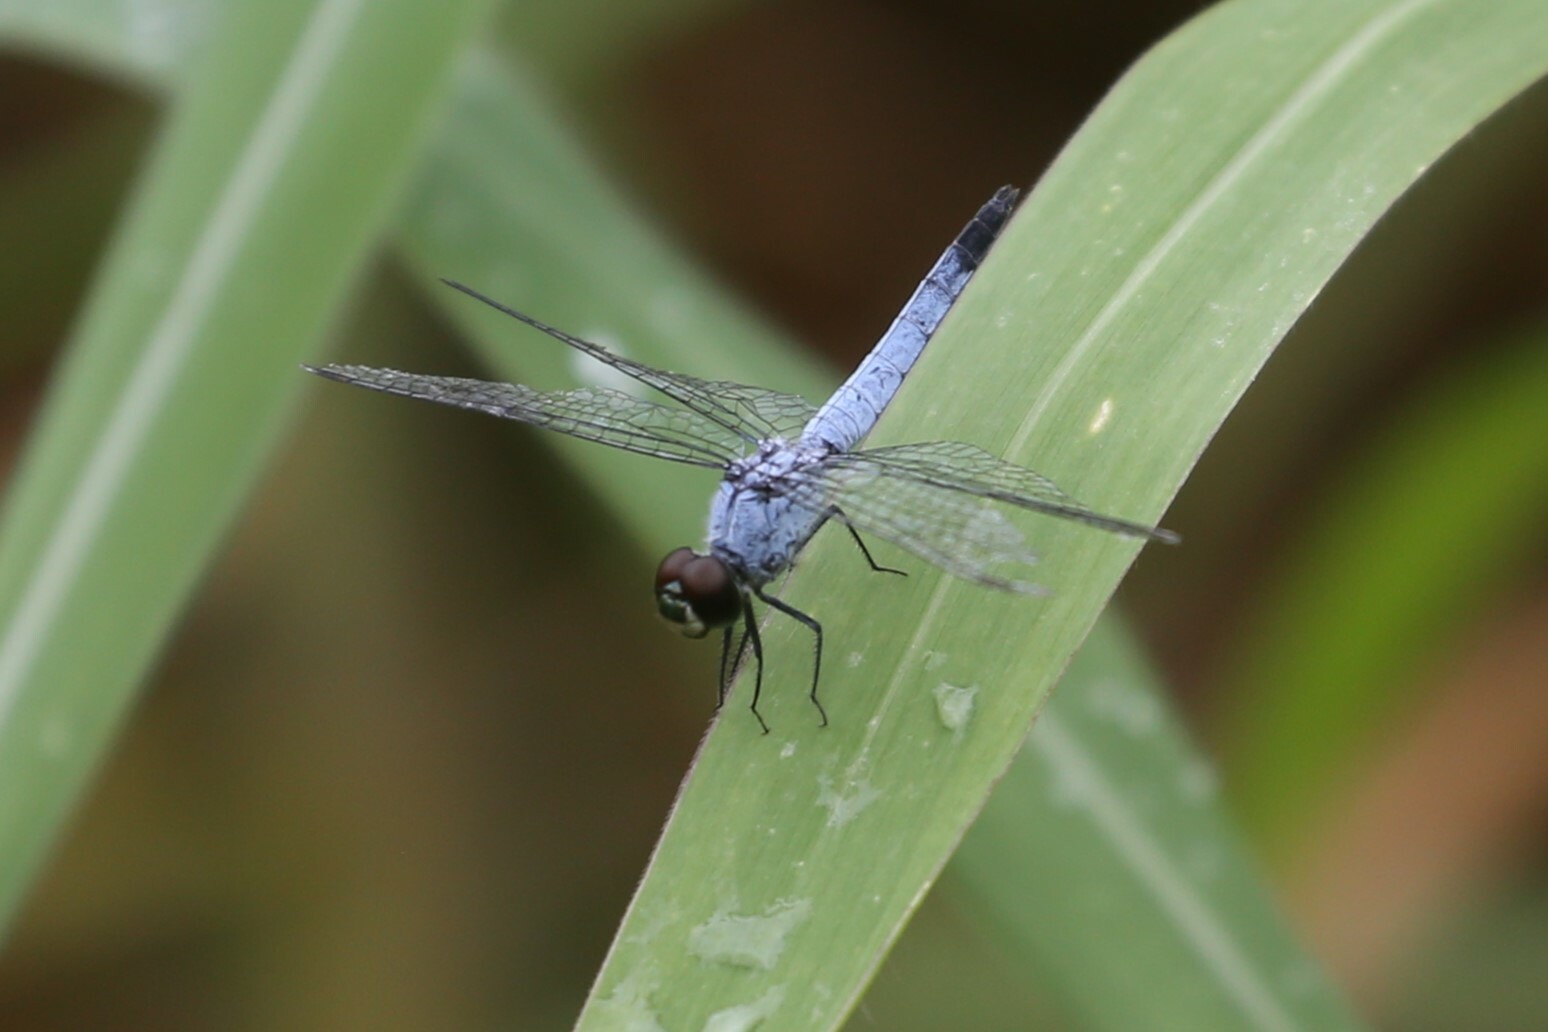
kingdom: Animalia
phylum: Arthropoda
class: Insecta
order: Odonata
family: Libellulidae
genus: Brachydiplax
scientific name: Brachydiplax denticauda
